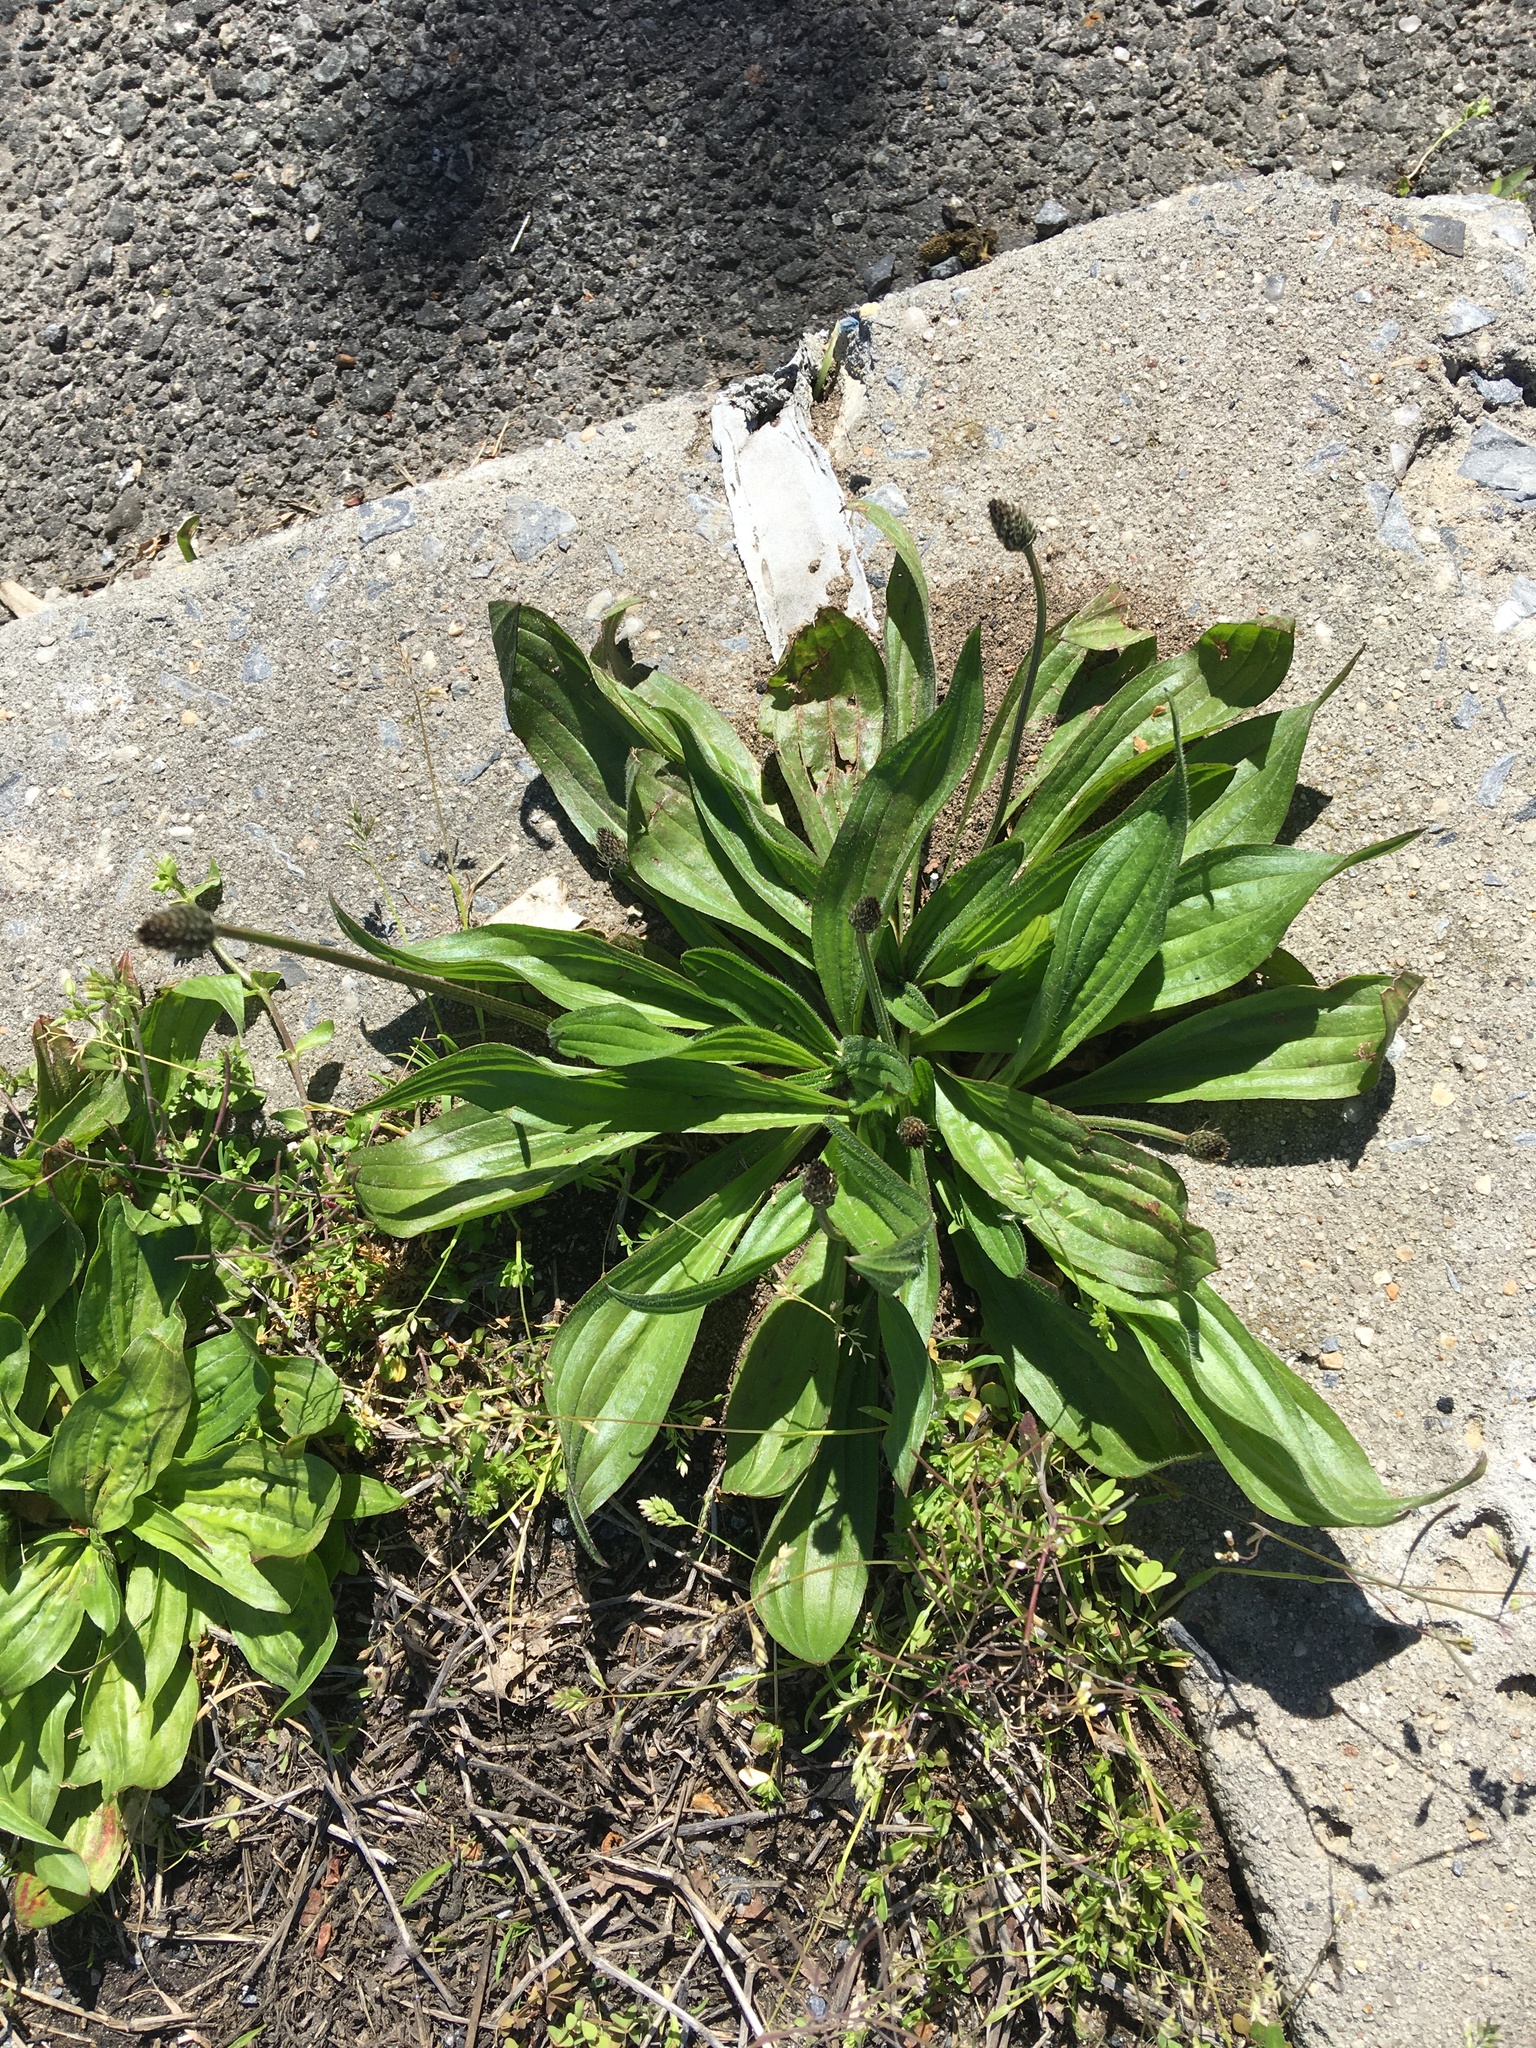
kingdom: Plantae
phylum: Tracheophyta
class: Magnoliopsida
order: Lamiales
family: Plantaginaceae
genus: Plantago
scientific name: Plantago lanceolata
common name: Ribwort plantain
